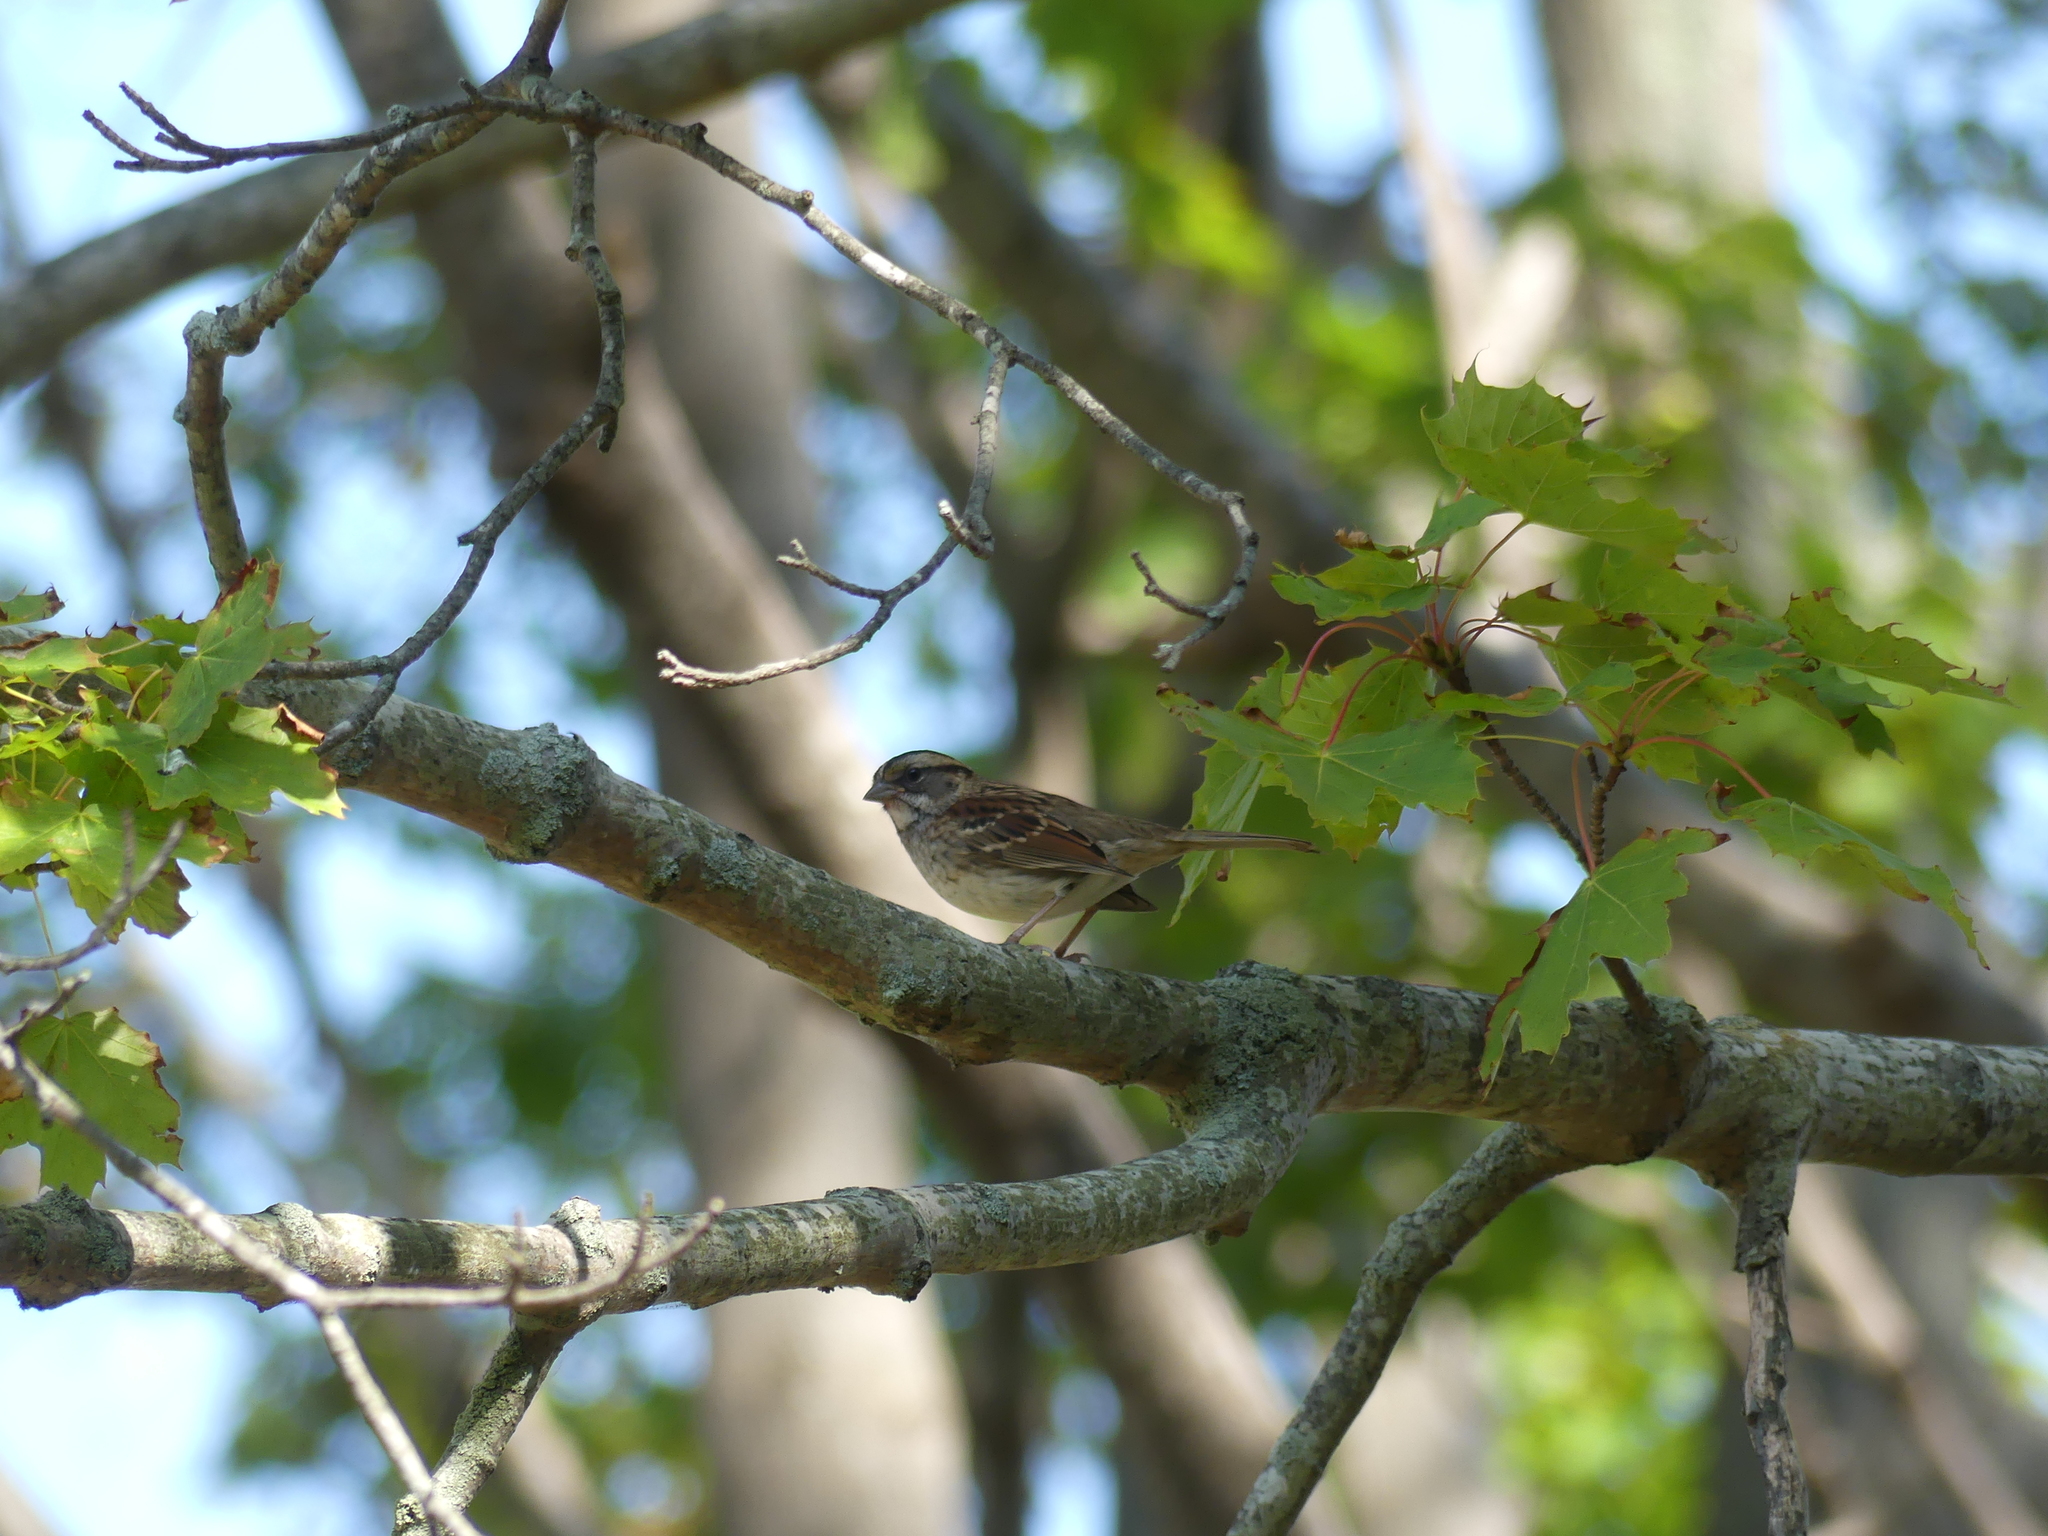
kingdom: Animalia
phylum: Chordata
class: Aves
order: Passeriformes
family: Passerellidae
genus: Zonotrichia
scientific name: Zonotrichia albicollis
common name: White-throated sparrow
